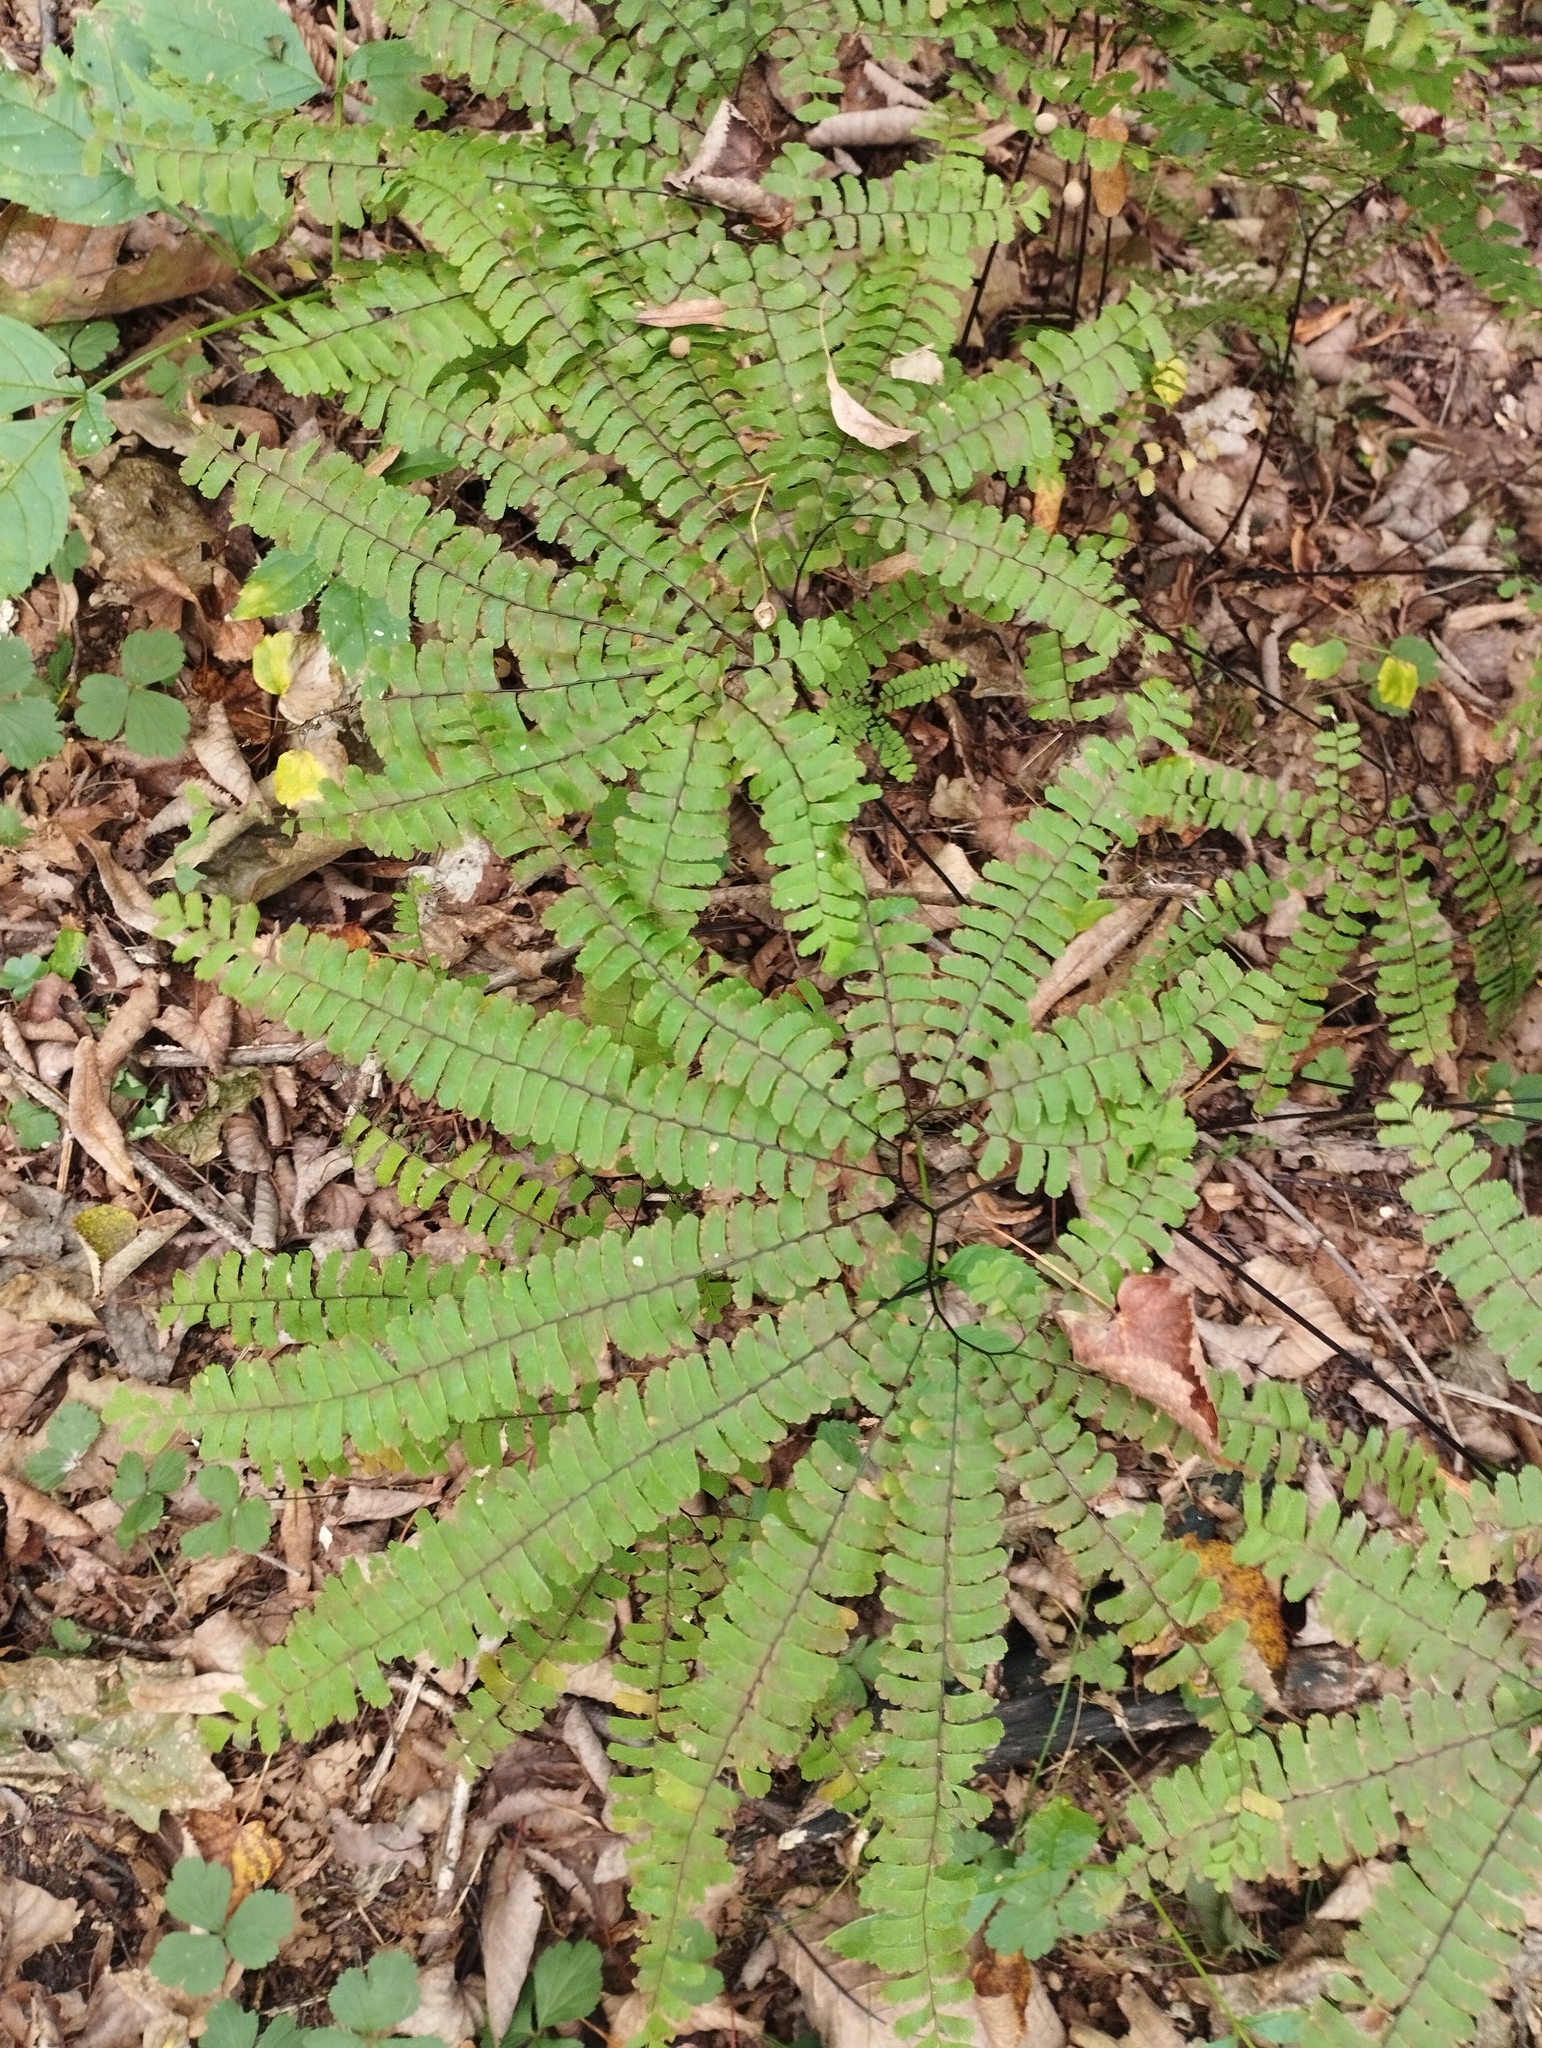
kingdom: Plantae
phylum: Tracheophyta
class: Polypodiopsida
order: Polypodiales
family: Pteridaceae
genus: Adiantum
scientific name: Adiantum pedatum
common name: Five-finger fern
